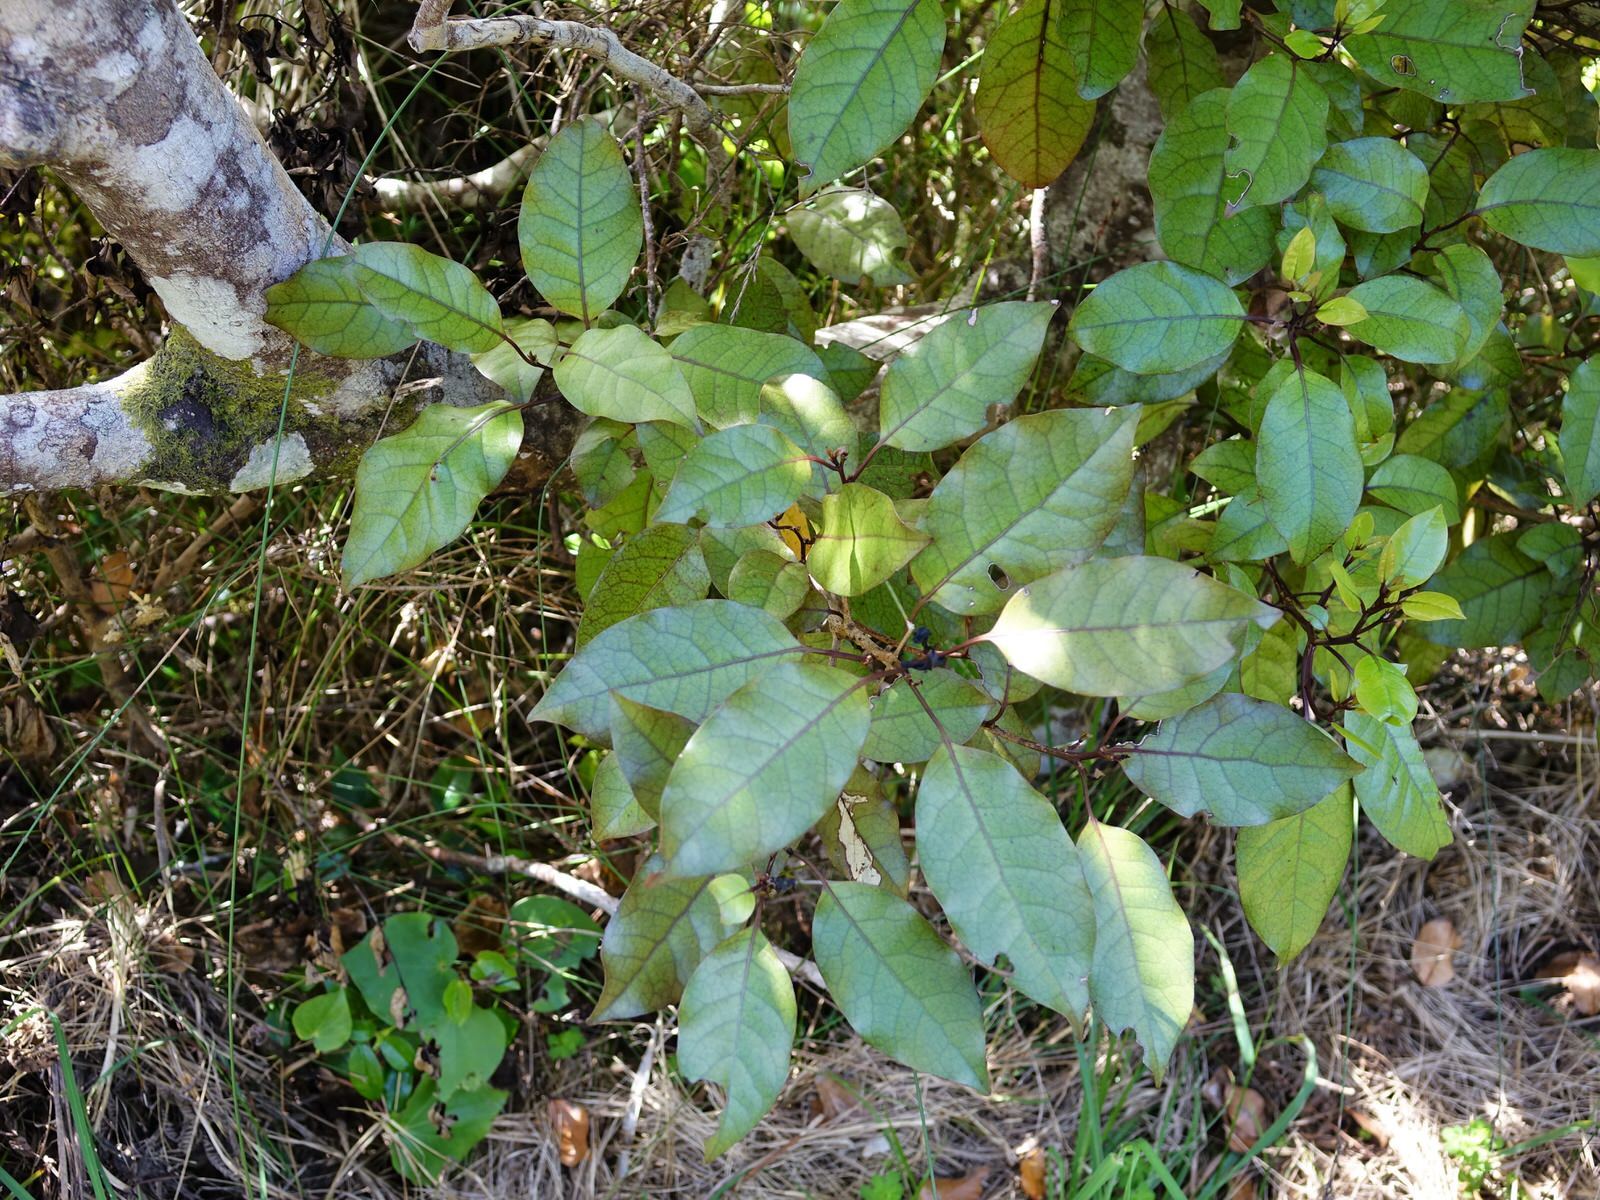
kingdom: Plantae
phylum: Tracheophyta
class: Magnoliopsida
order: Laurales
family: Lauraceae
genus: Litsea
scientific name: Litsea calicaris
